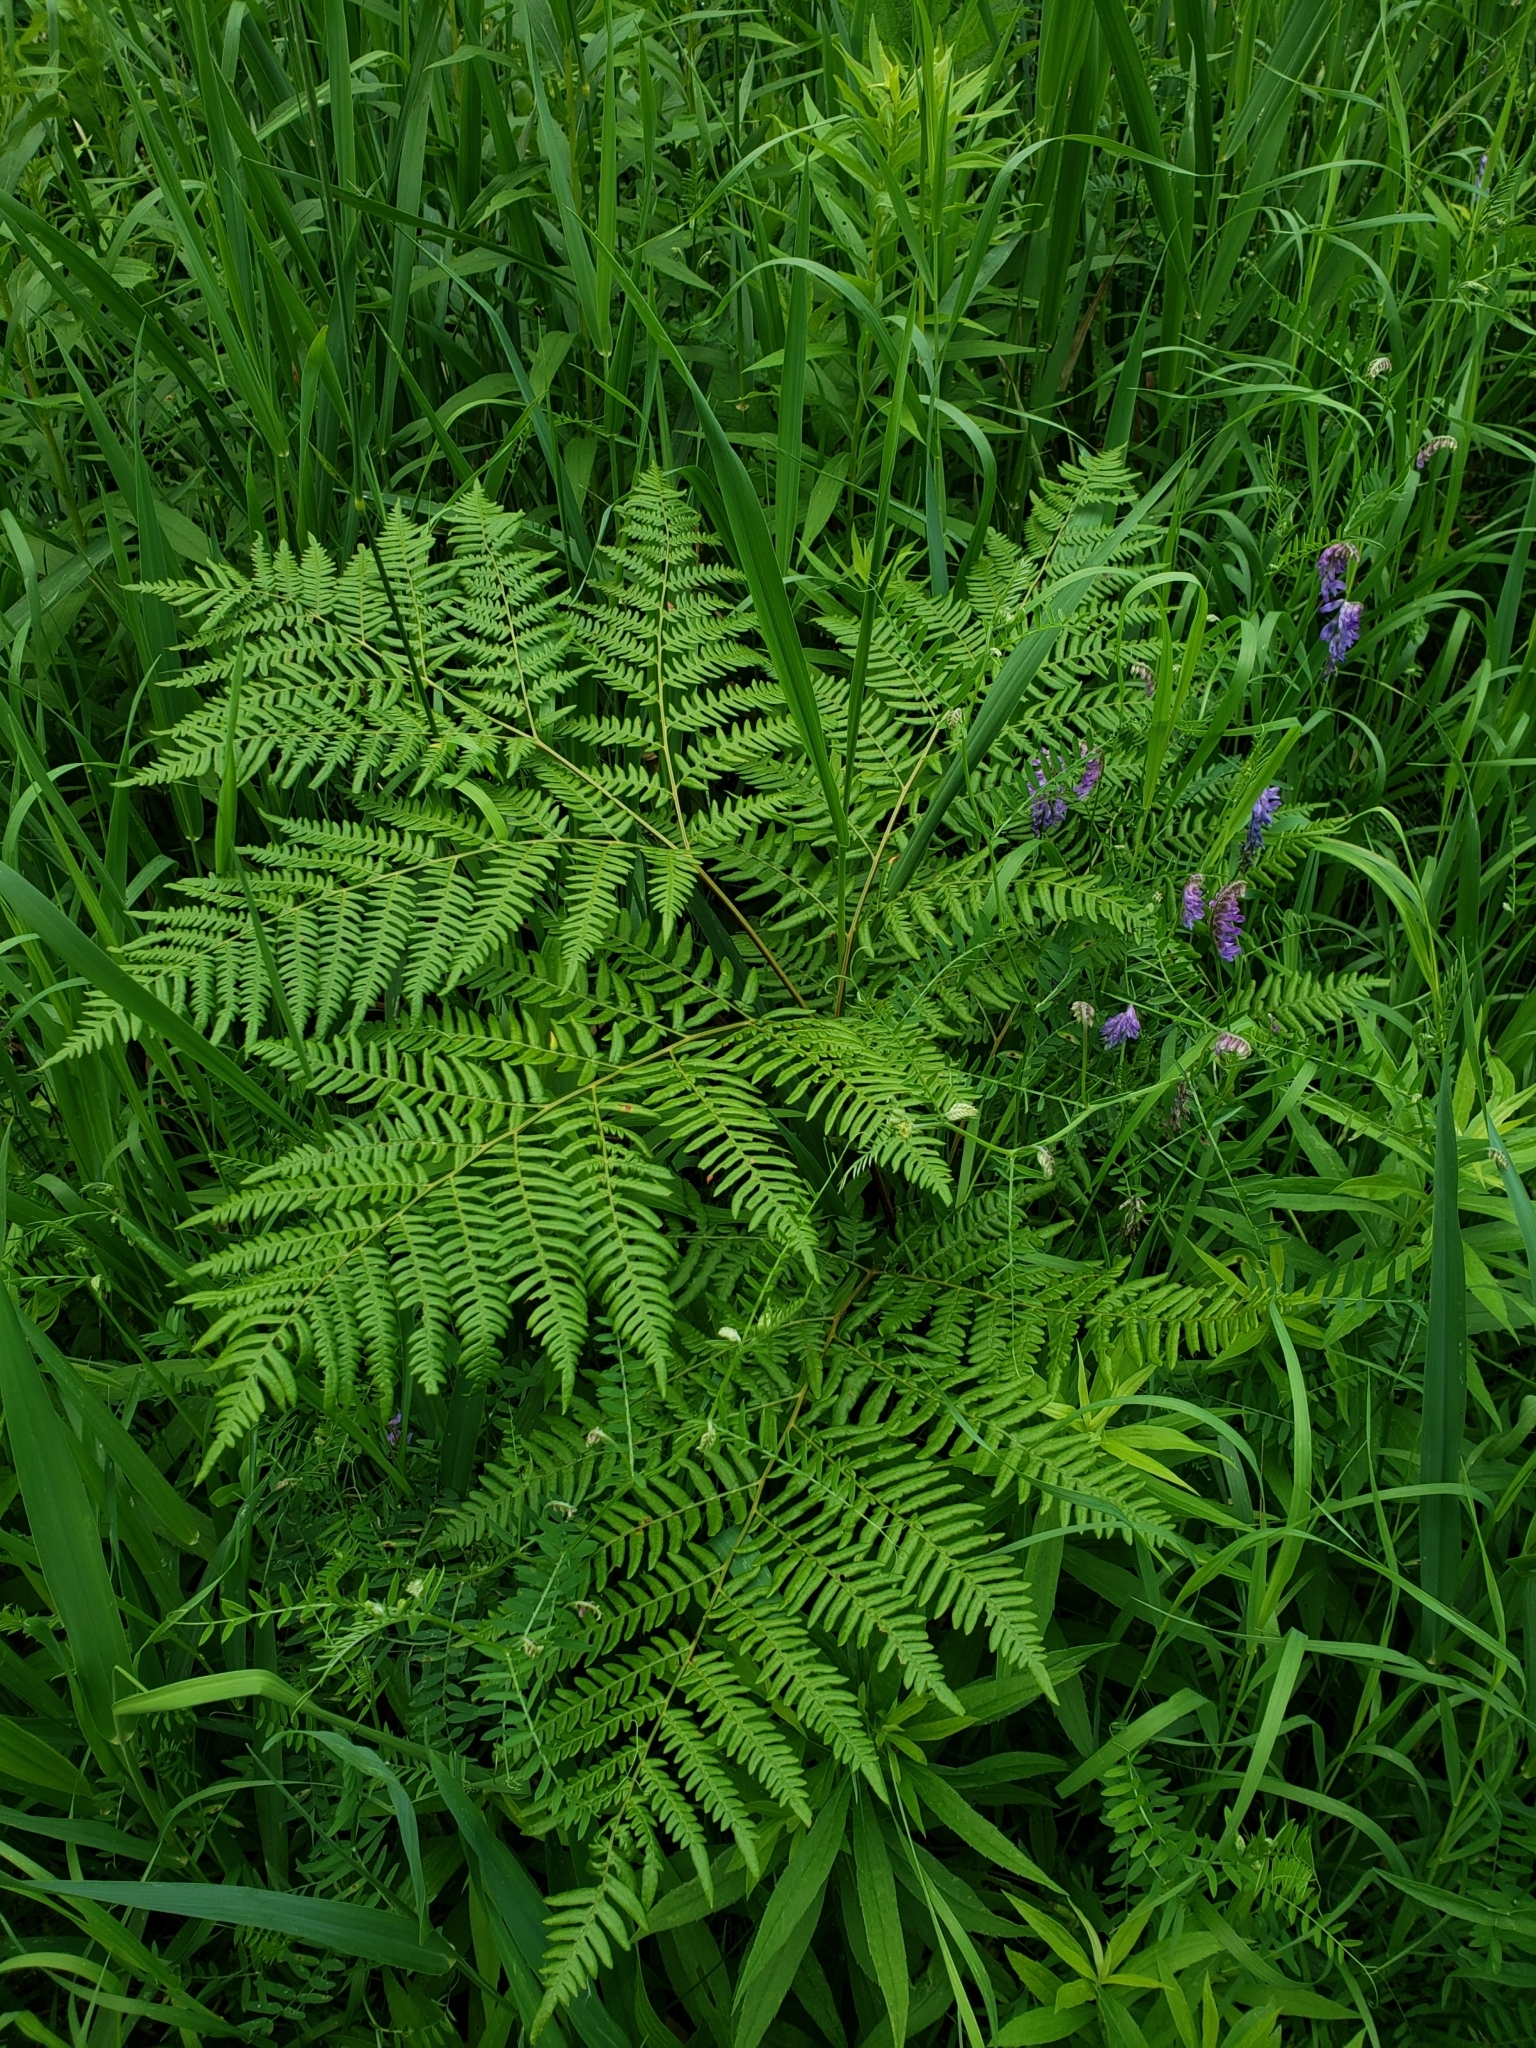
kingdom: Plantae
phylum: Tracheophyta
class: Polypodiopsida
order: Polypodiales
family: Dennstaedtiaceae
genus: Pteridium
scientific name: Pteridium aquilinum
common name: Bracken
